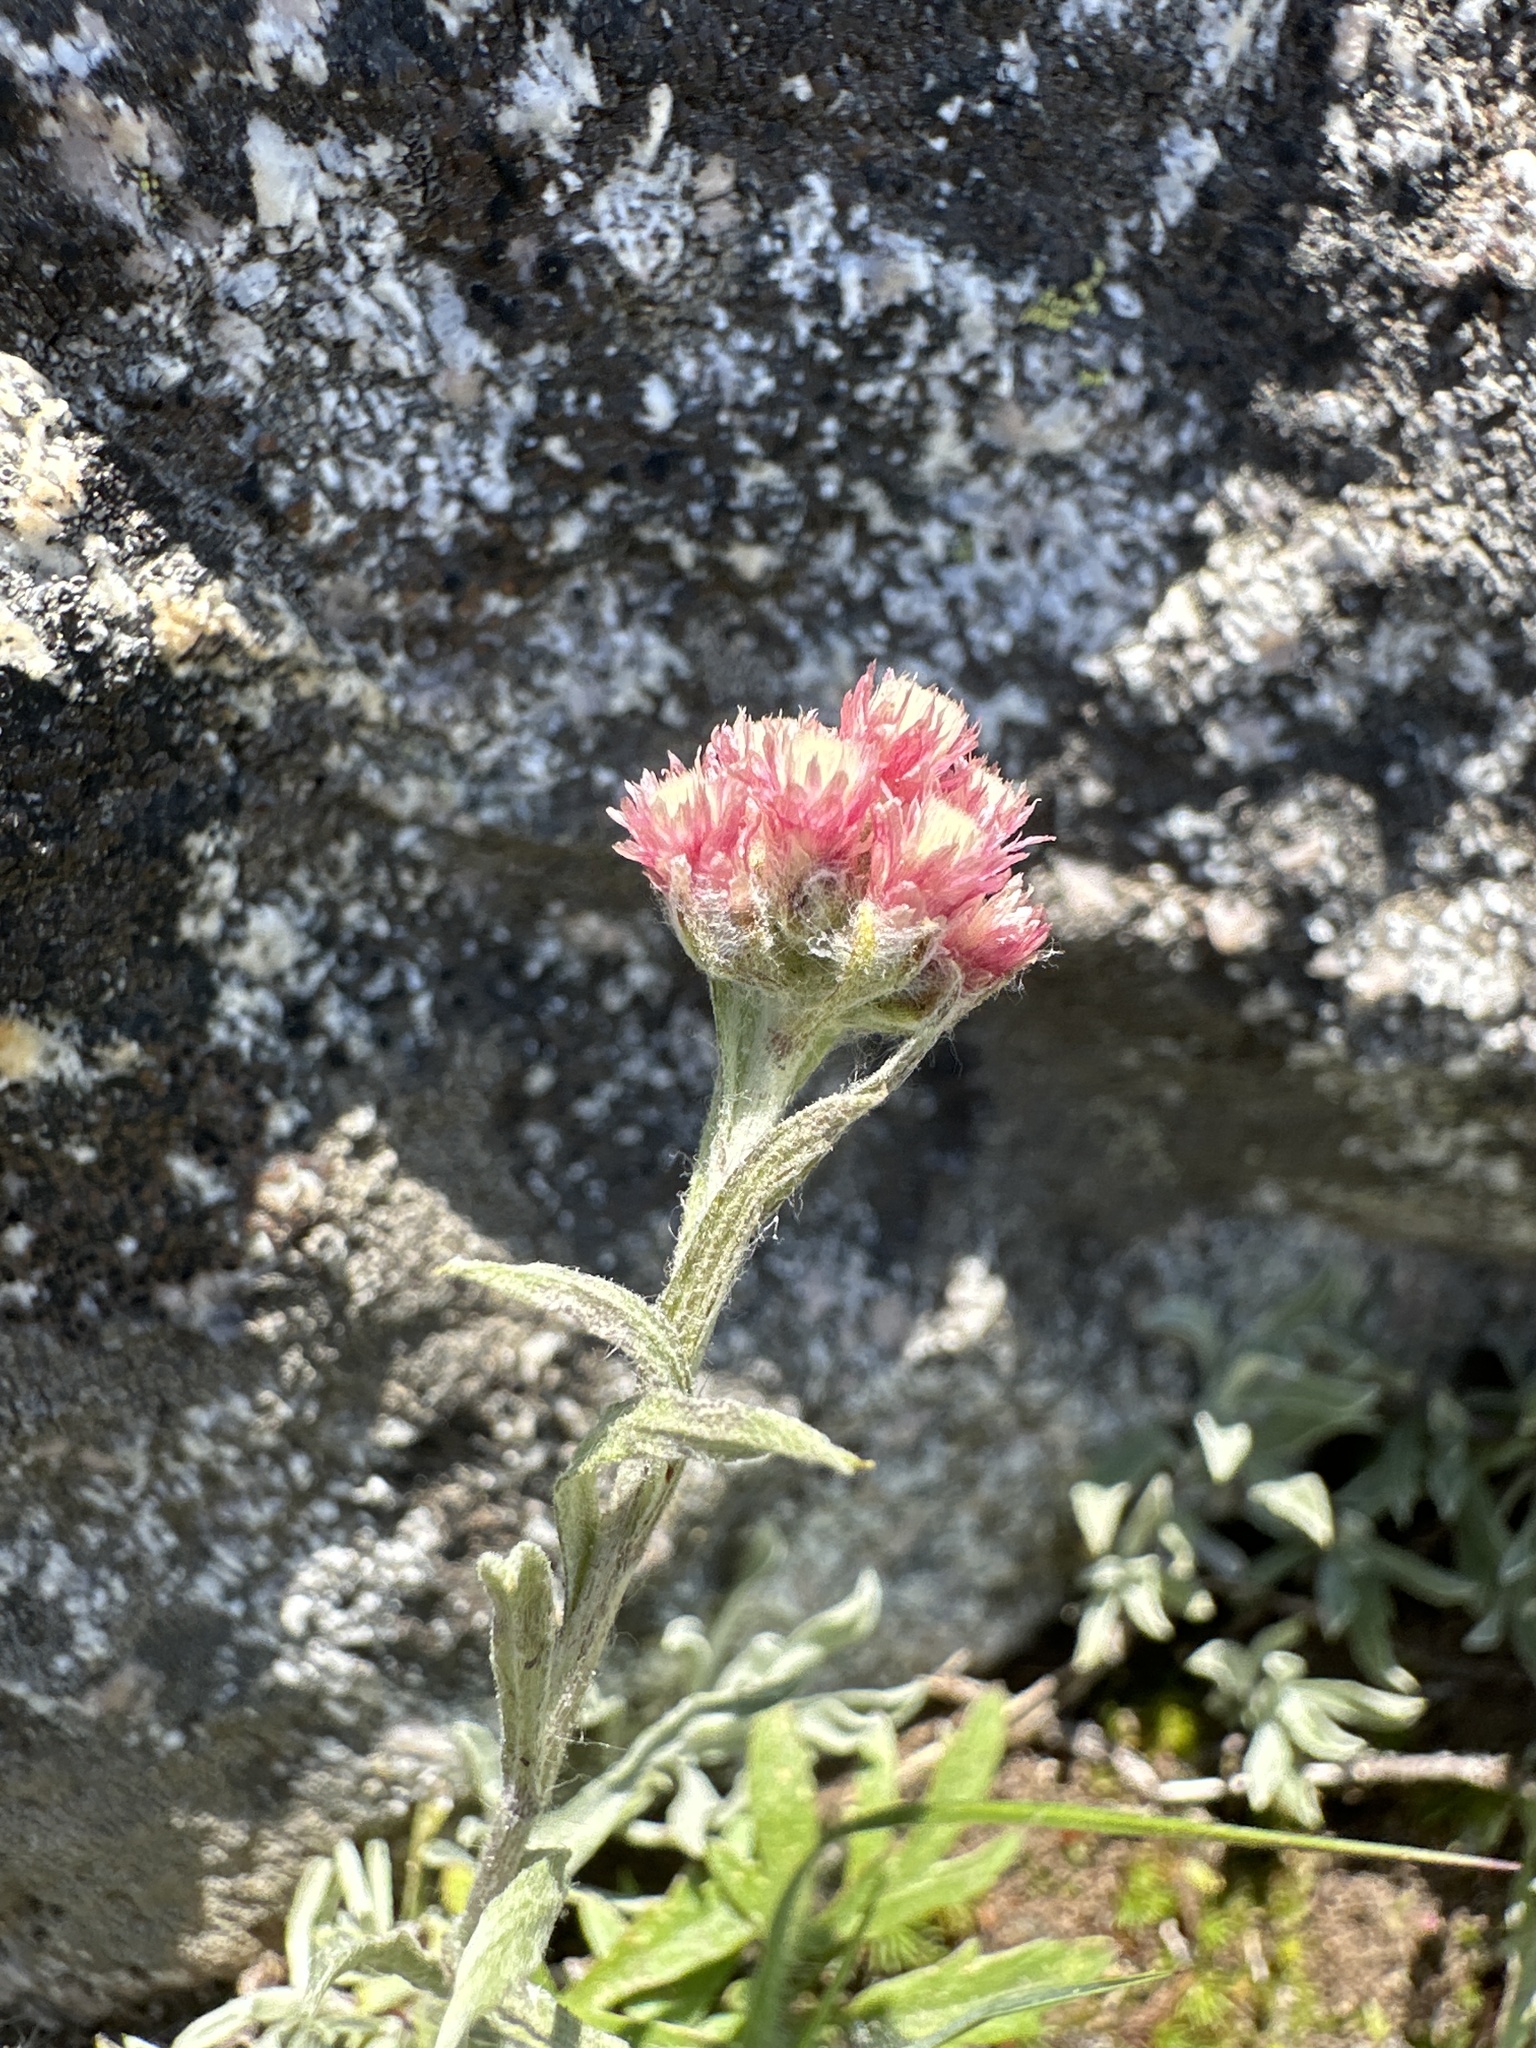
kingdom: Plantae
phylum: Tracheophyta
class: Magnoliopsida
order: Asterales
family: Asteraceae
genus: Antennaria
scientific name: Antennaria rosea
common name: Rosy pussytoes
